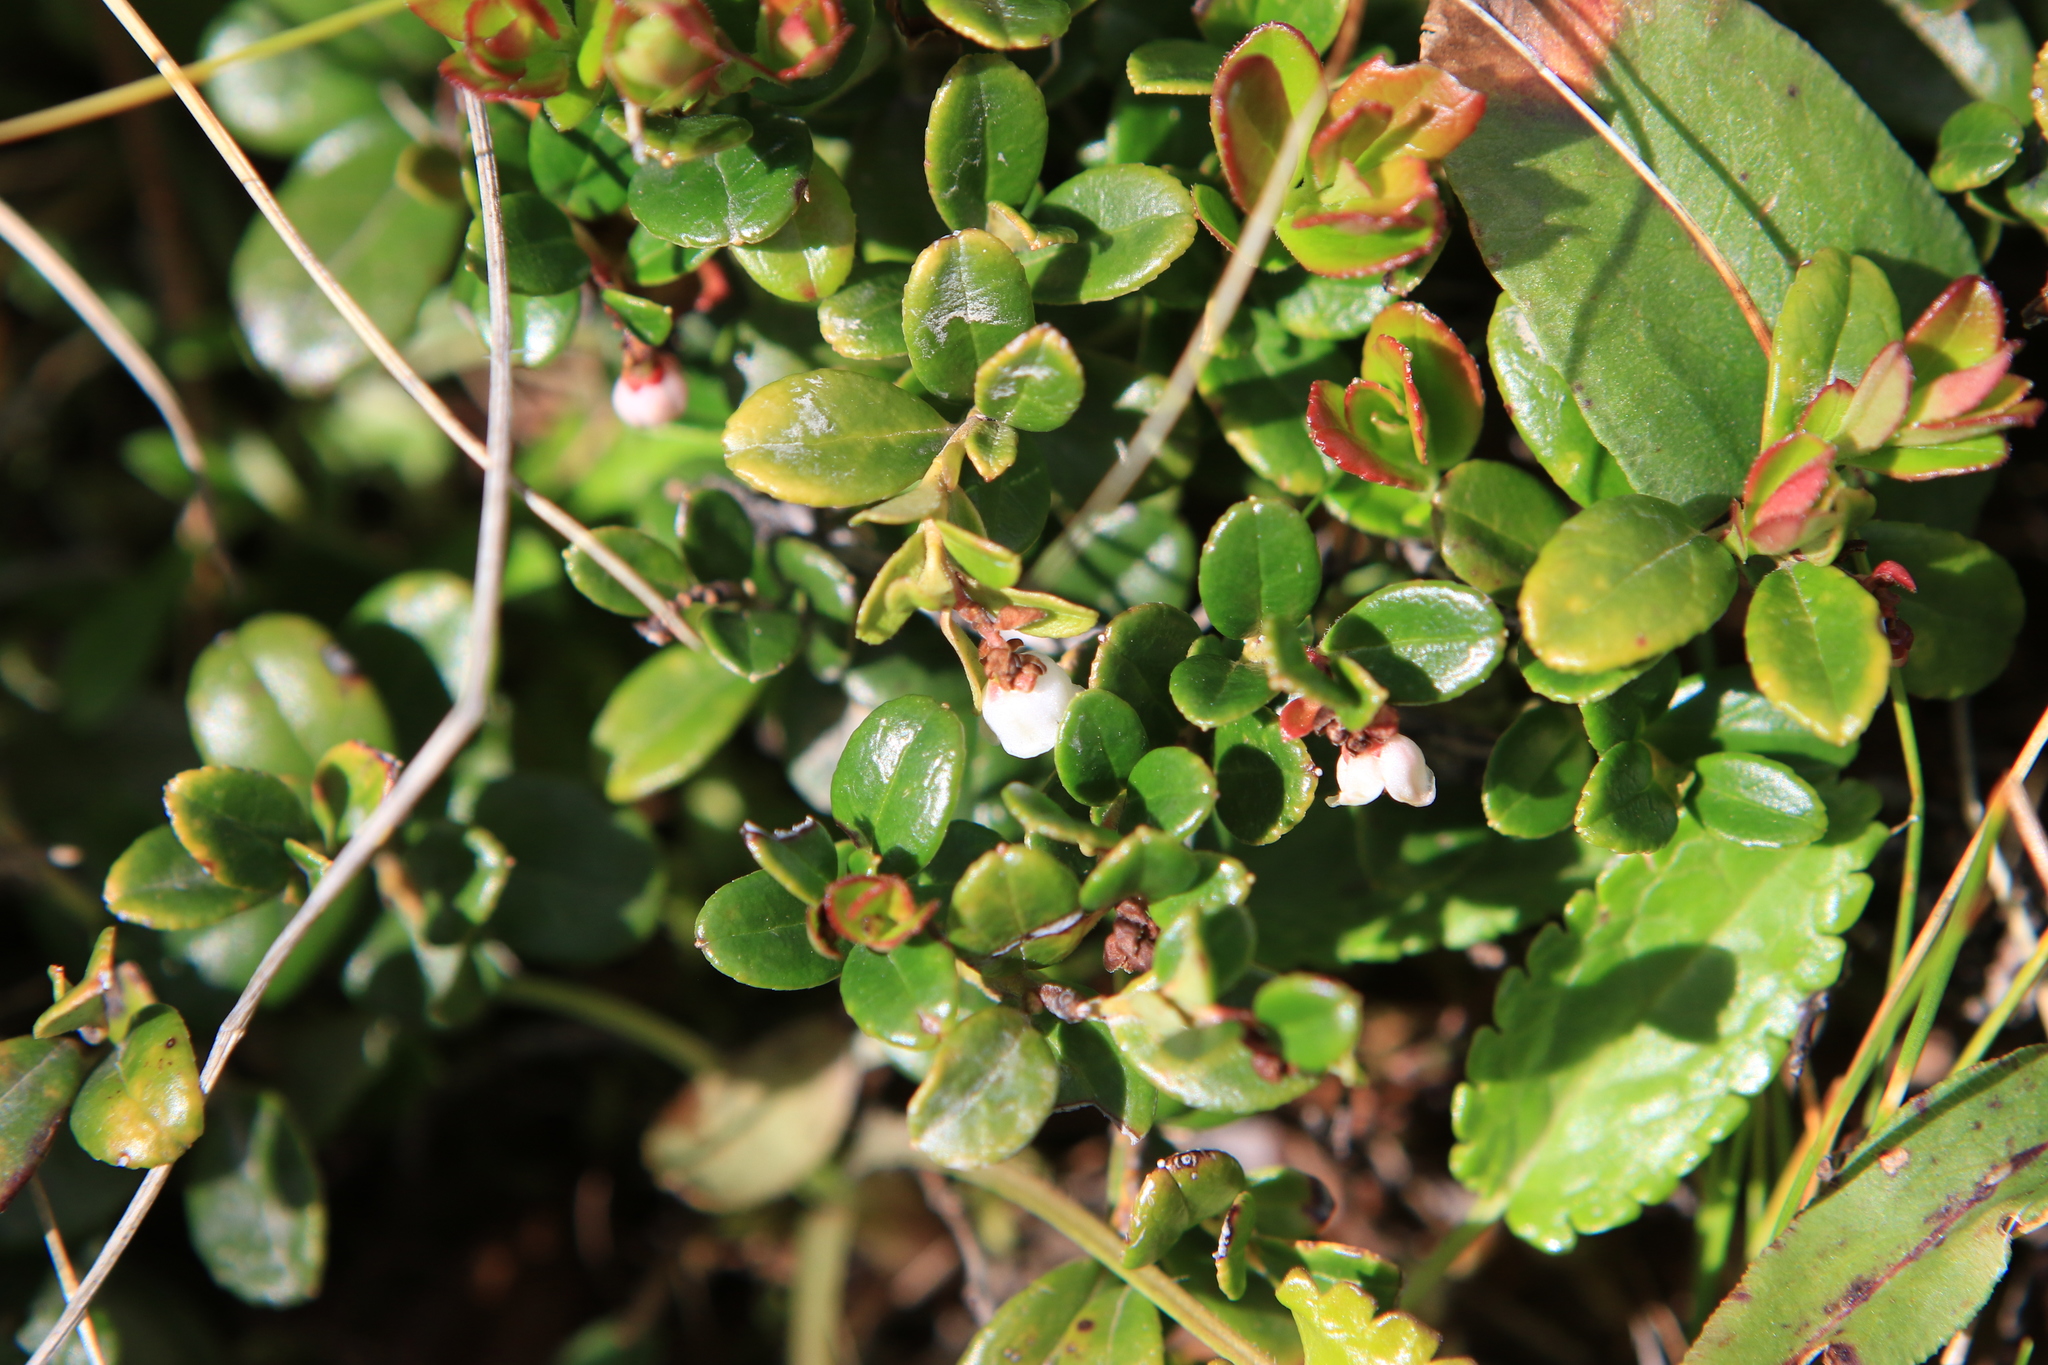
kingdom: Plantae
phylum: Tracheophyta
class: Magnoliopsida
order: Ericales
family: Ericaceae
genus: Vaccinium
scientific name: Vaccinium vitis-idaea
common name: Cowberry
